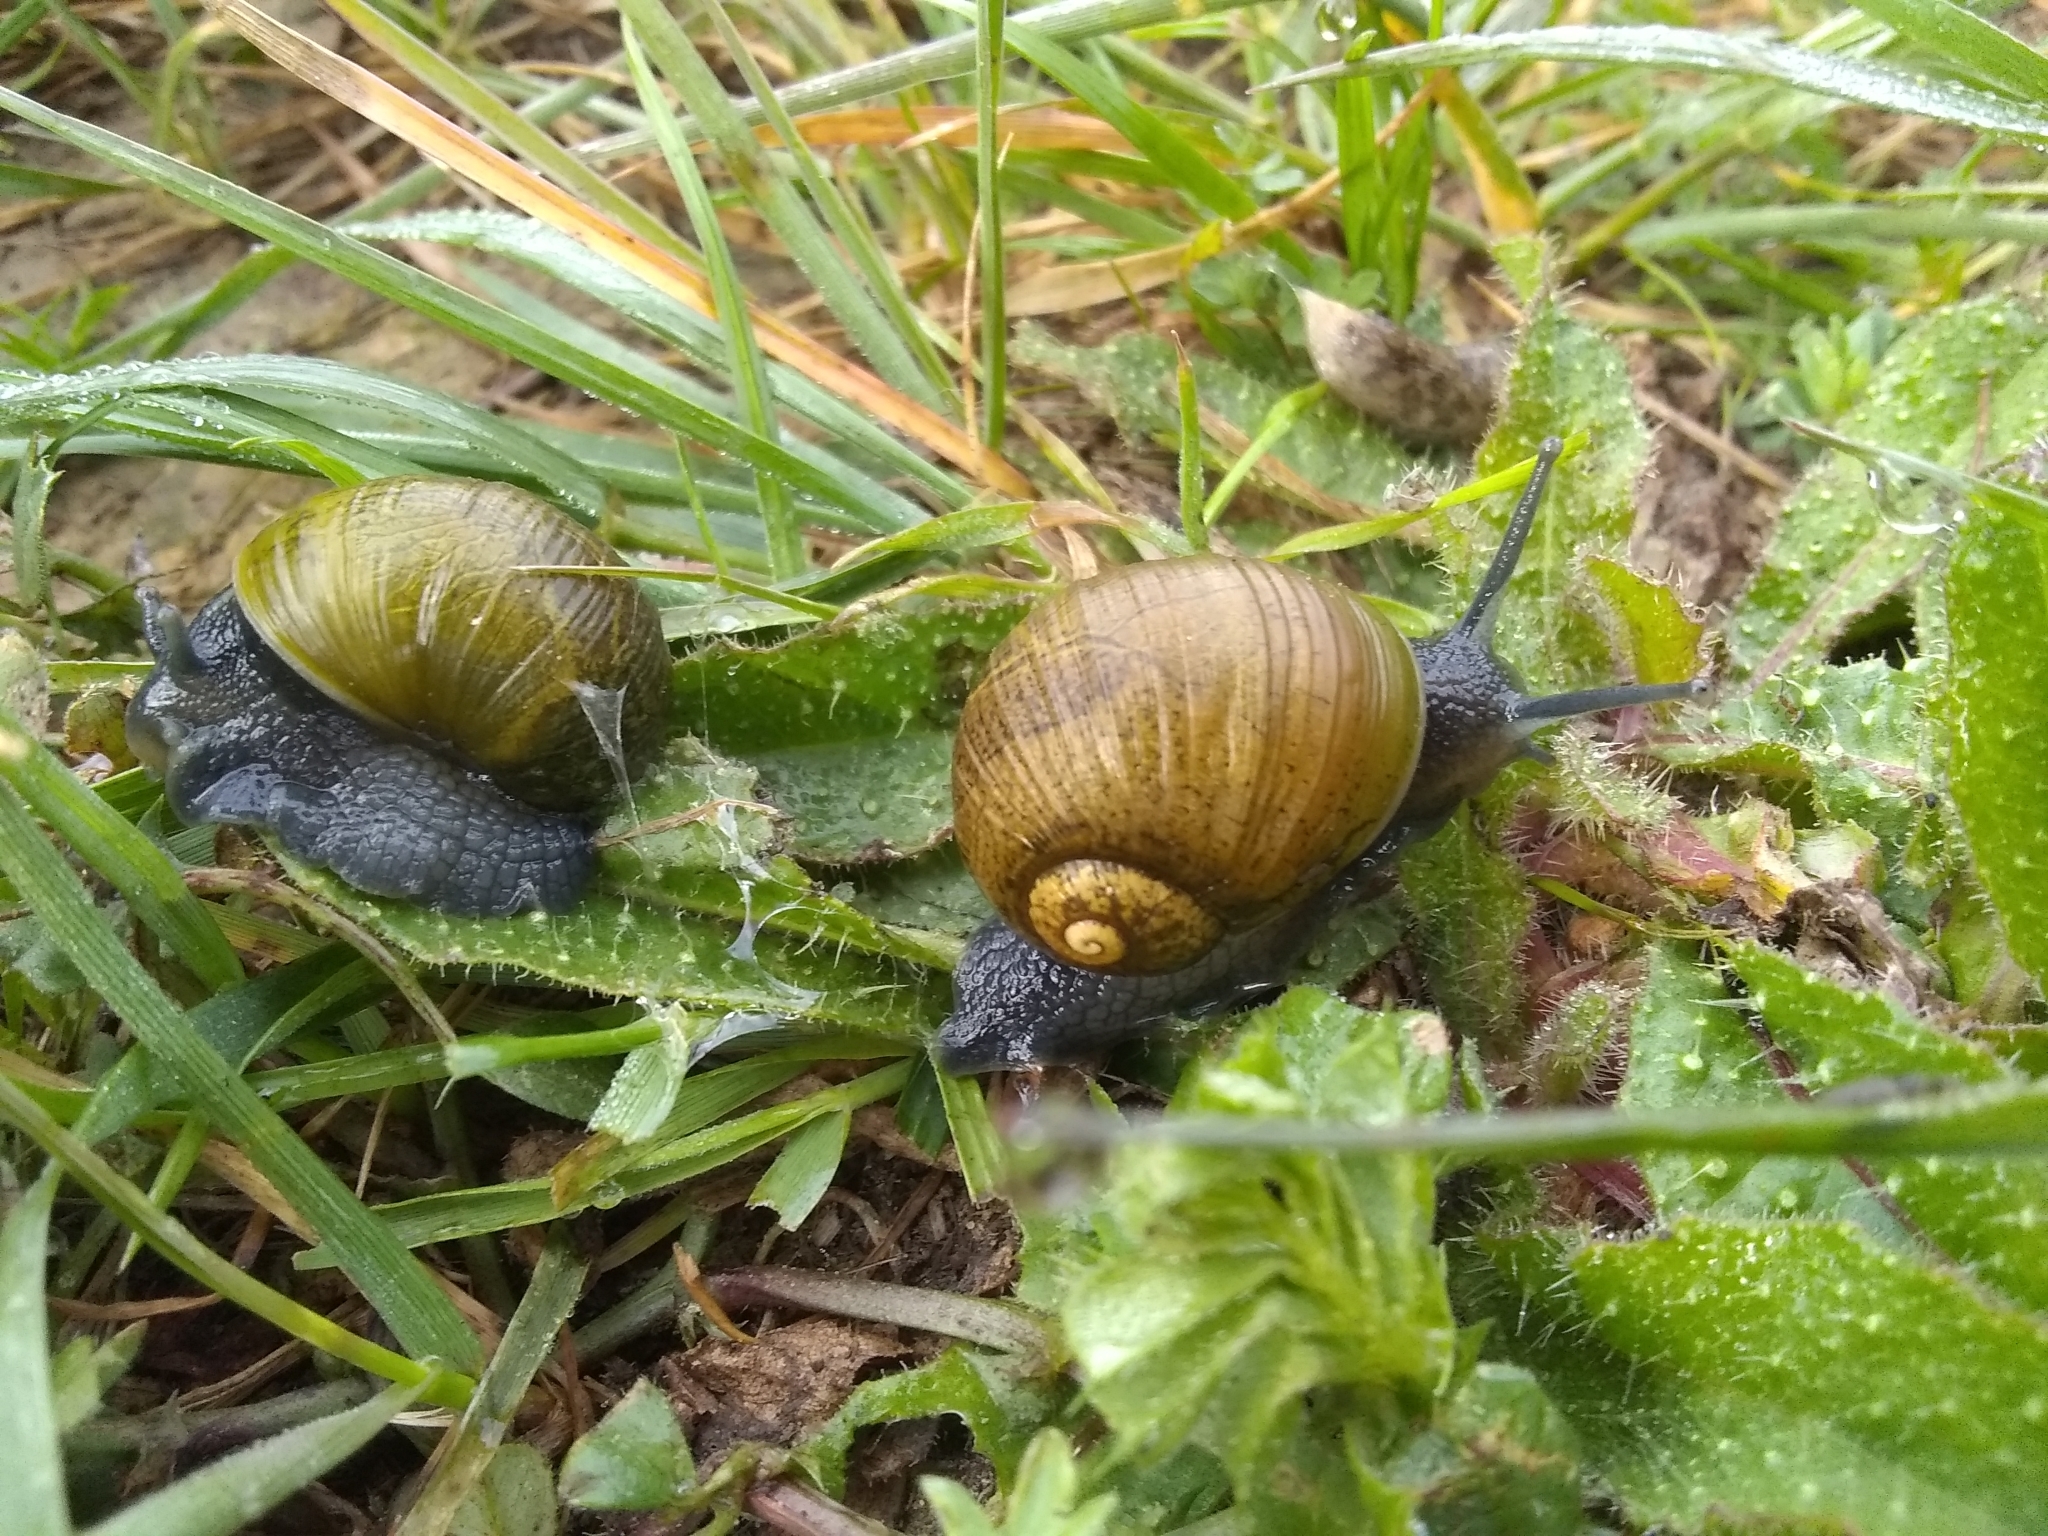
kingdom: Animalia
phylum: Mollusca
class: Gastropoda
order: Stylommatophora
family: Helicidae
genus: Cantareus
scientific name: Cantareus apertus
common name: Green gardensnail
